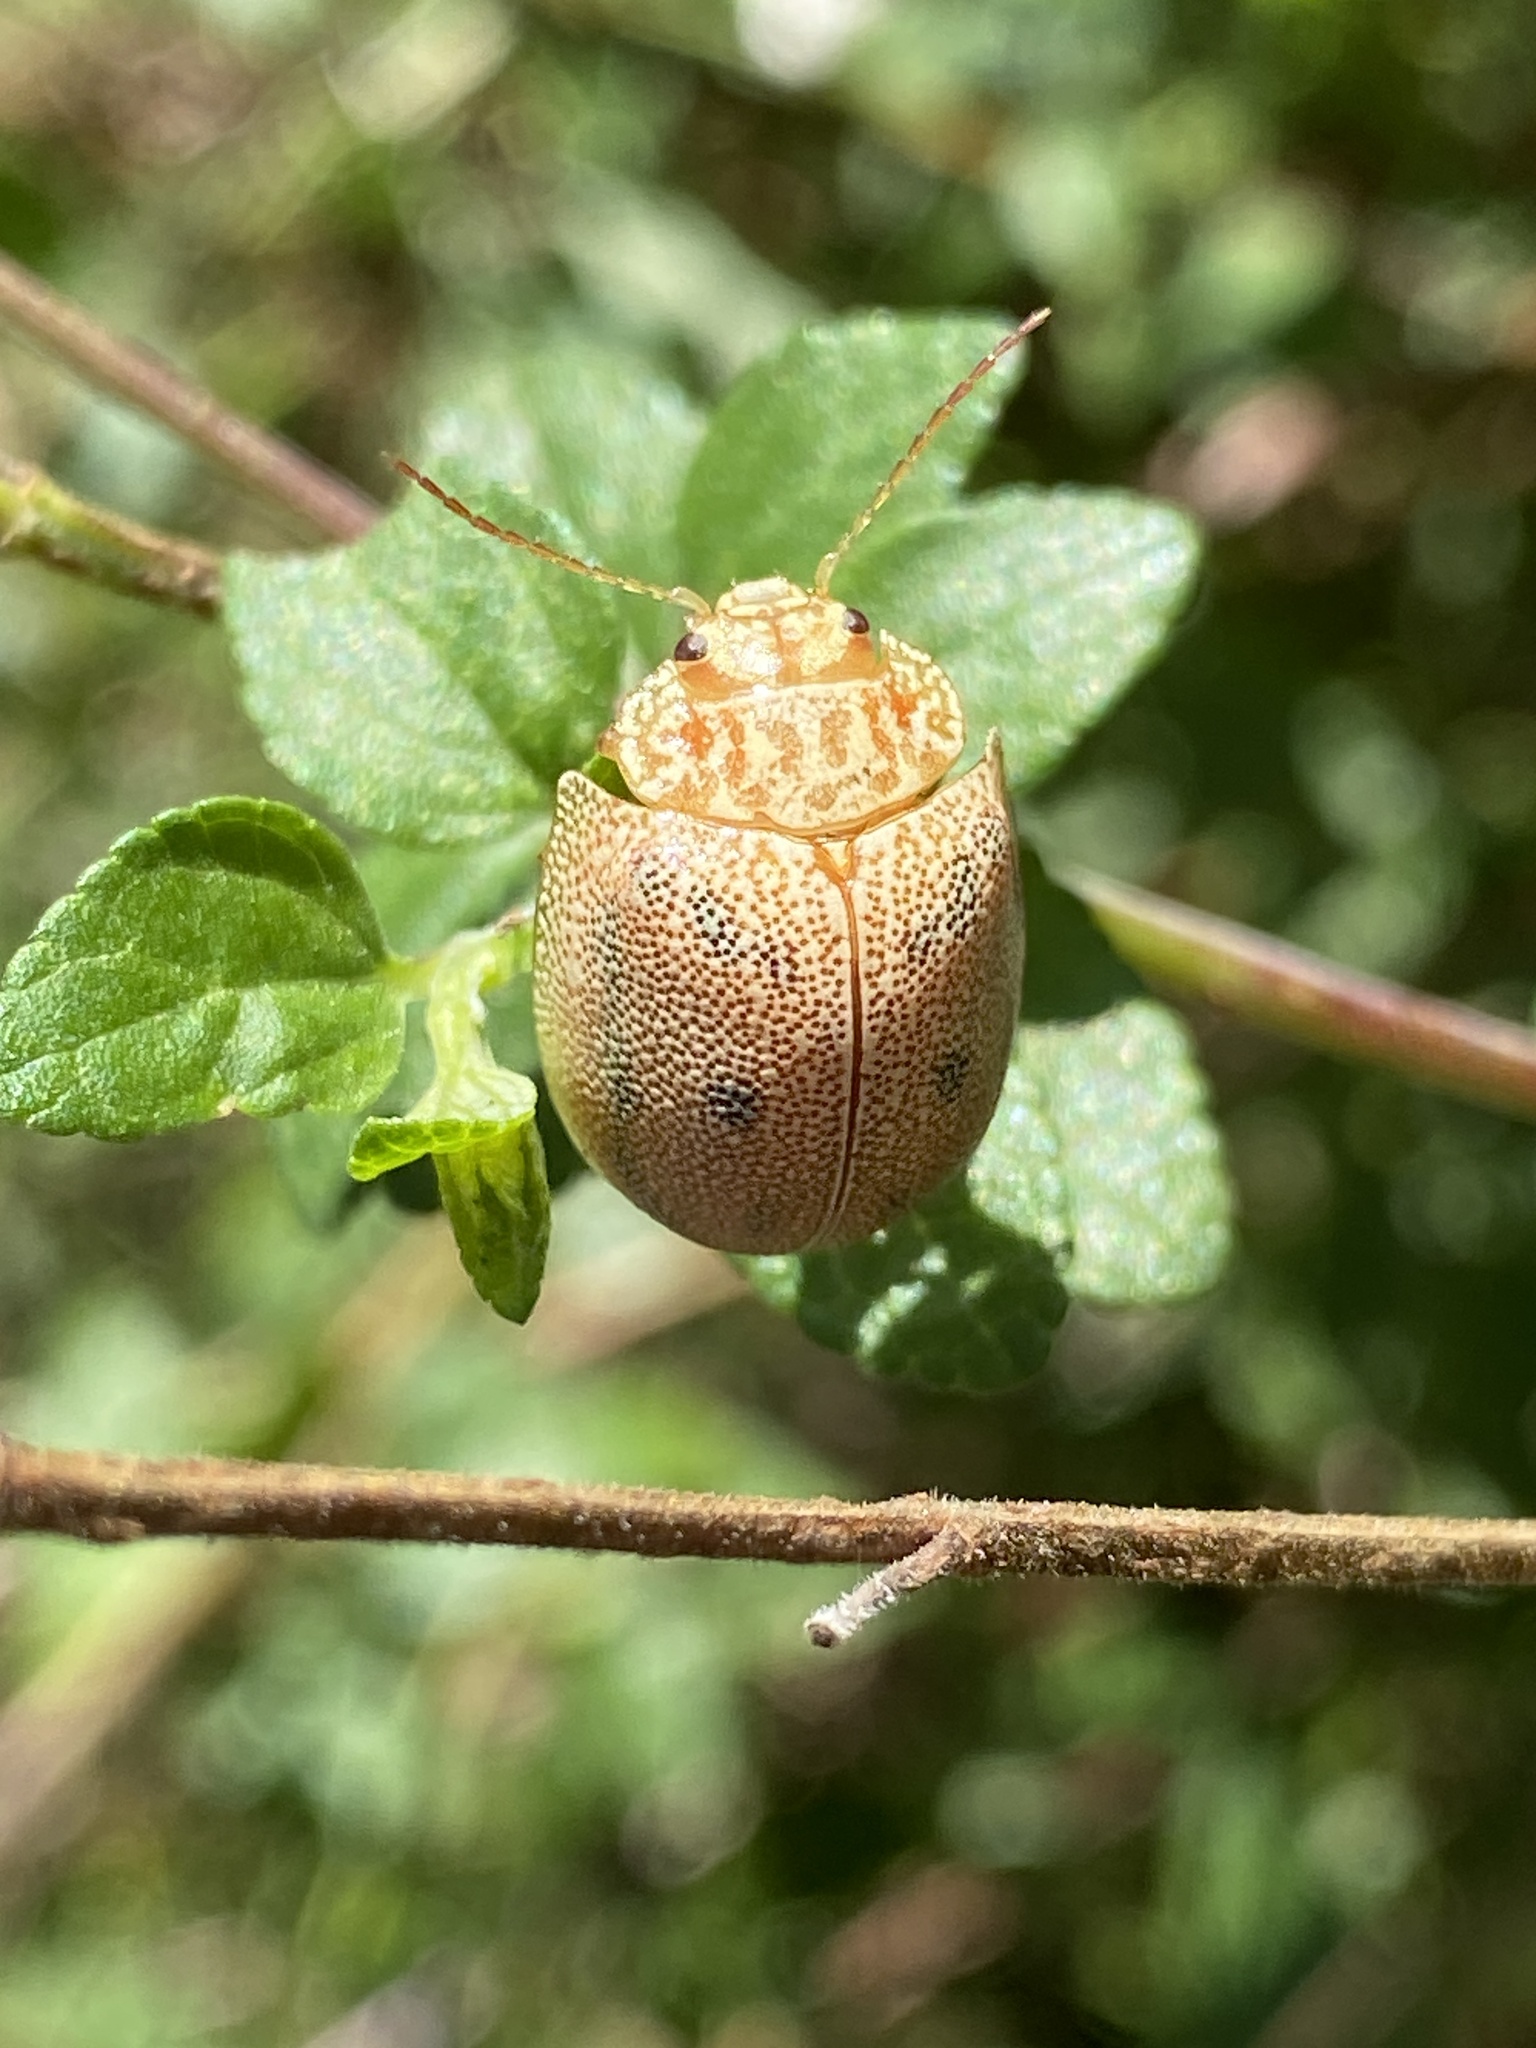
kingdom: Animalia
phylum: Arthropoda
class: Insecta
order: Coleoptera
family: Chrysomelidae
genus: Paropsis
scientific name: Paropsis
